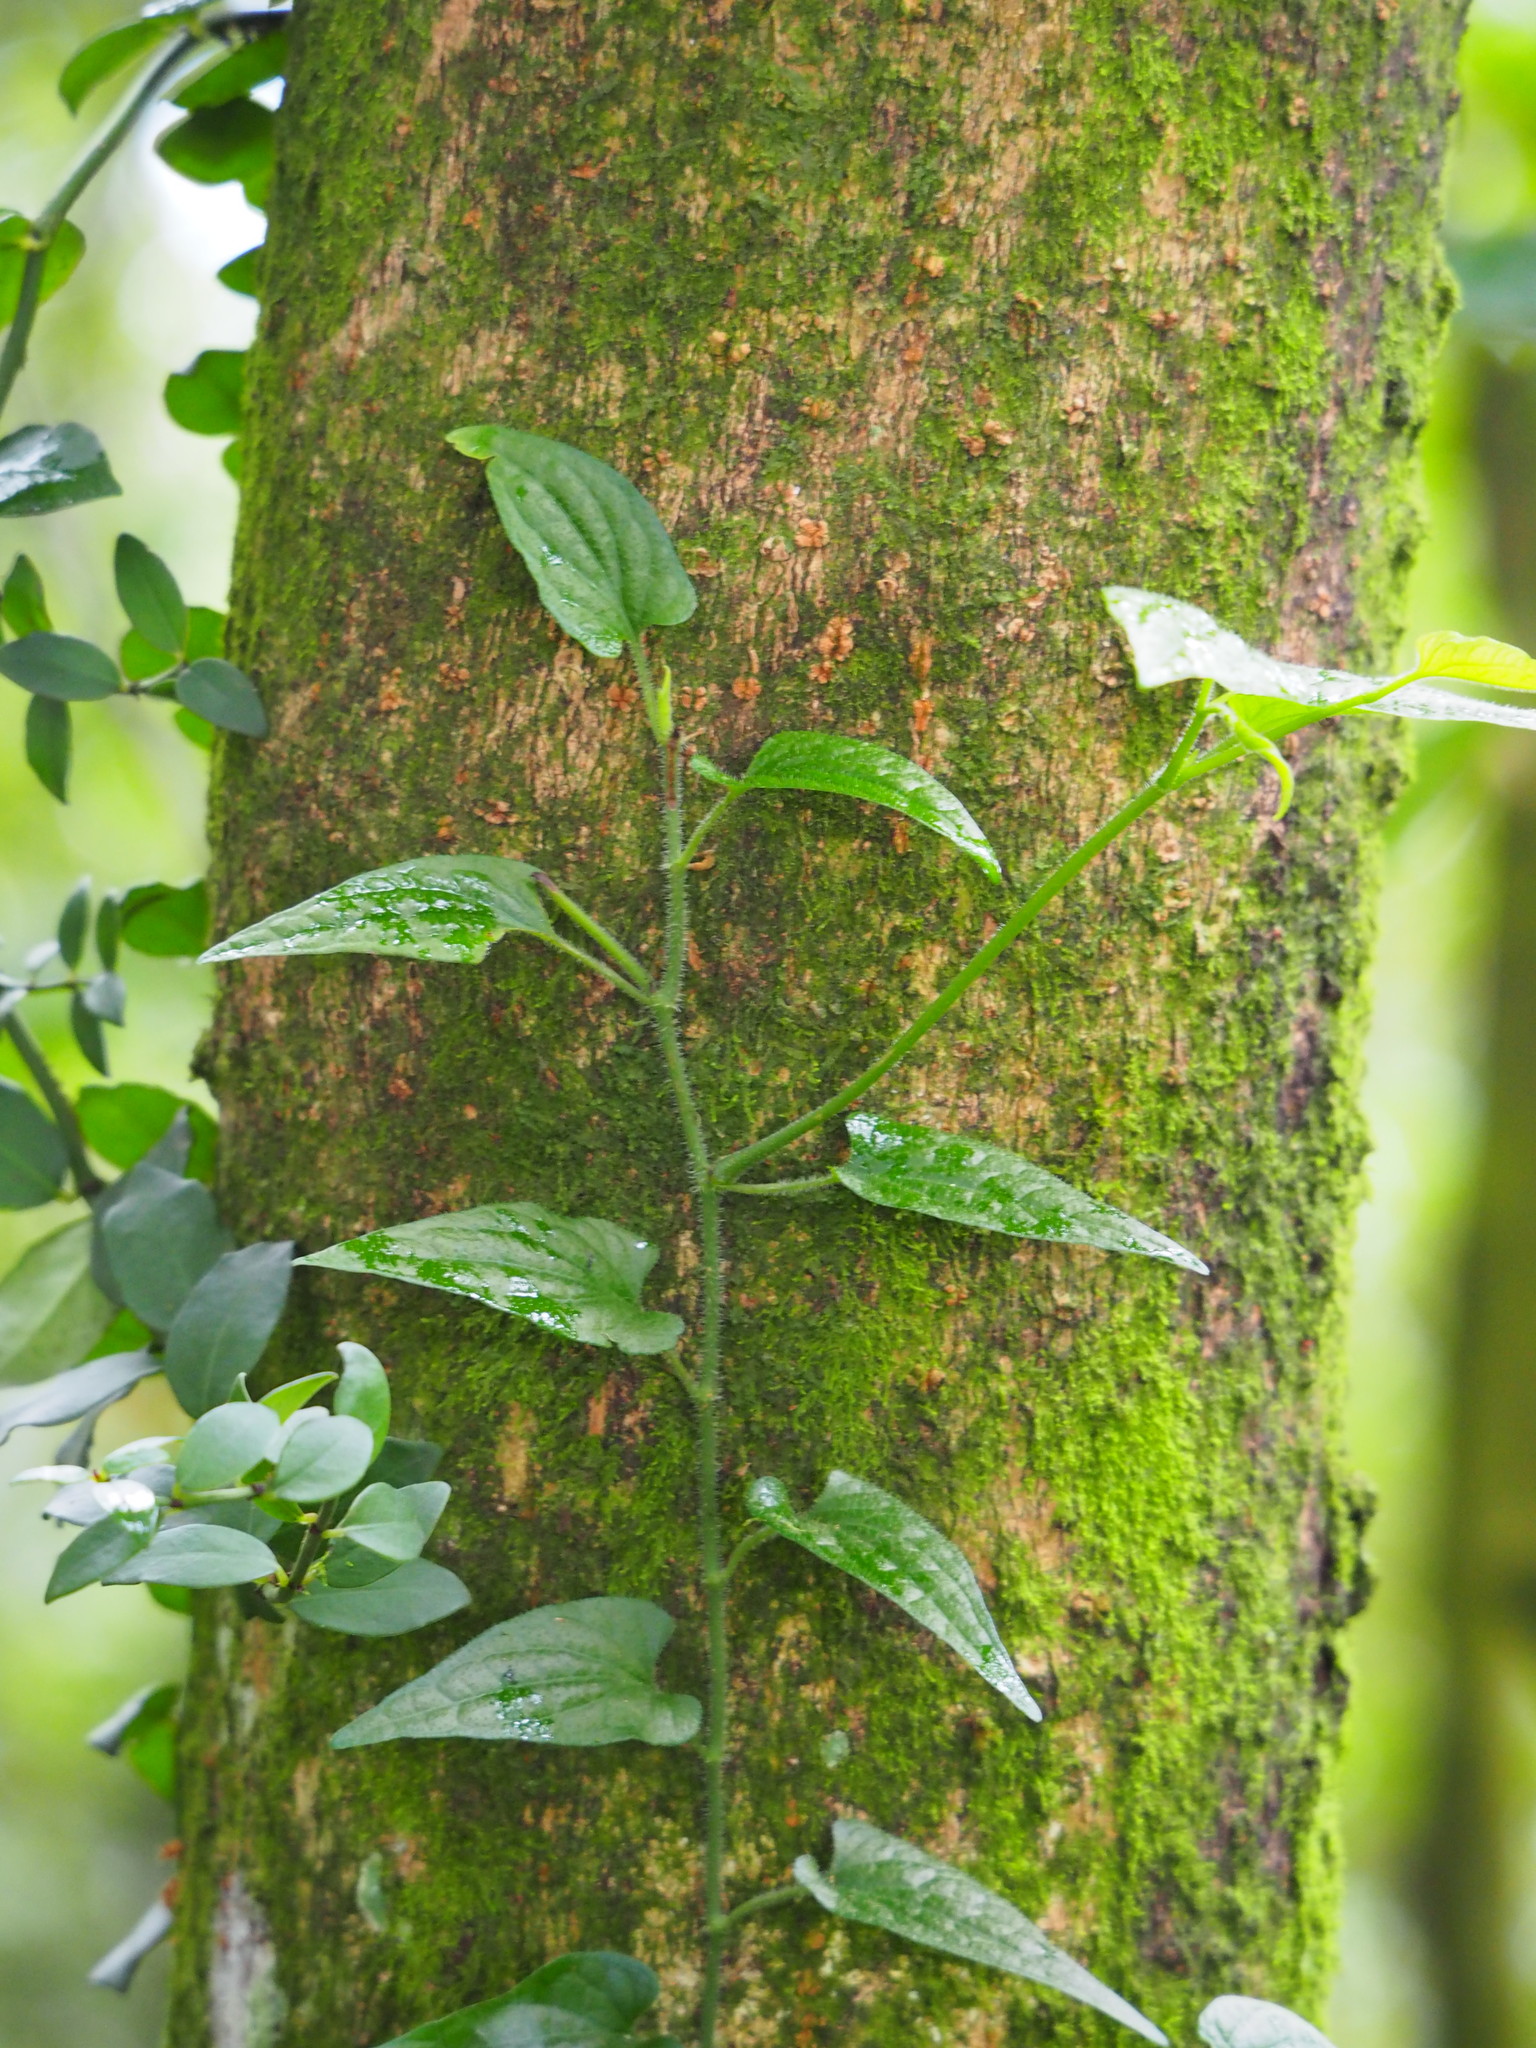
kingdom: Plantae
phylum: Tracheophyta
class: Magnoliopsida
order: Piperales
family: Piperaceae
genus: Piper
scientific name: Piper sintenense
